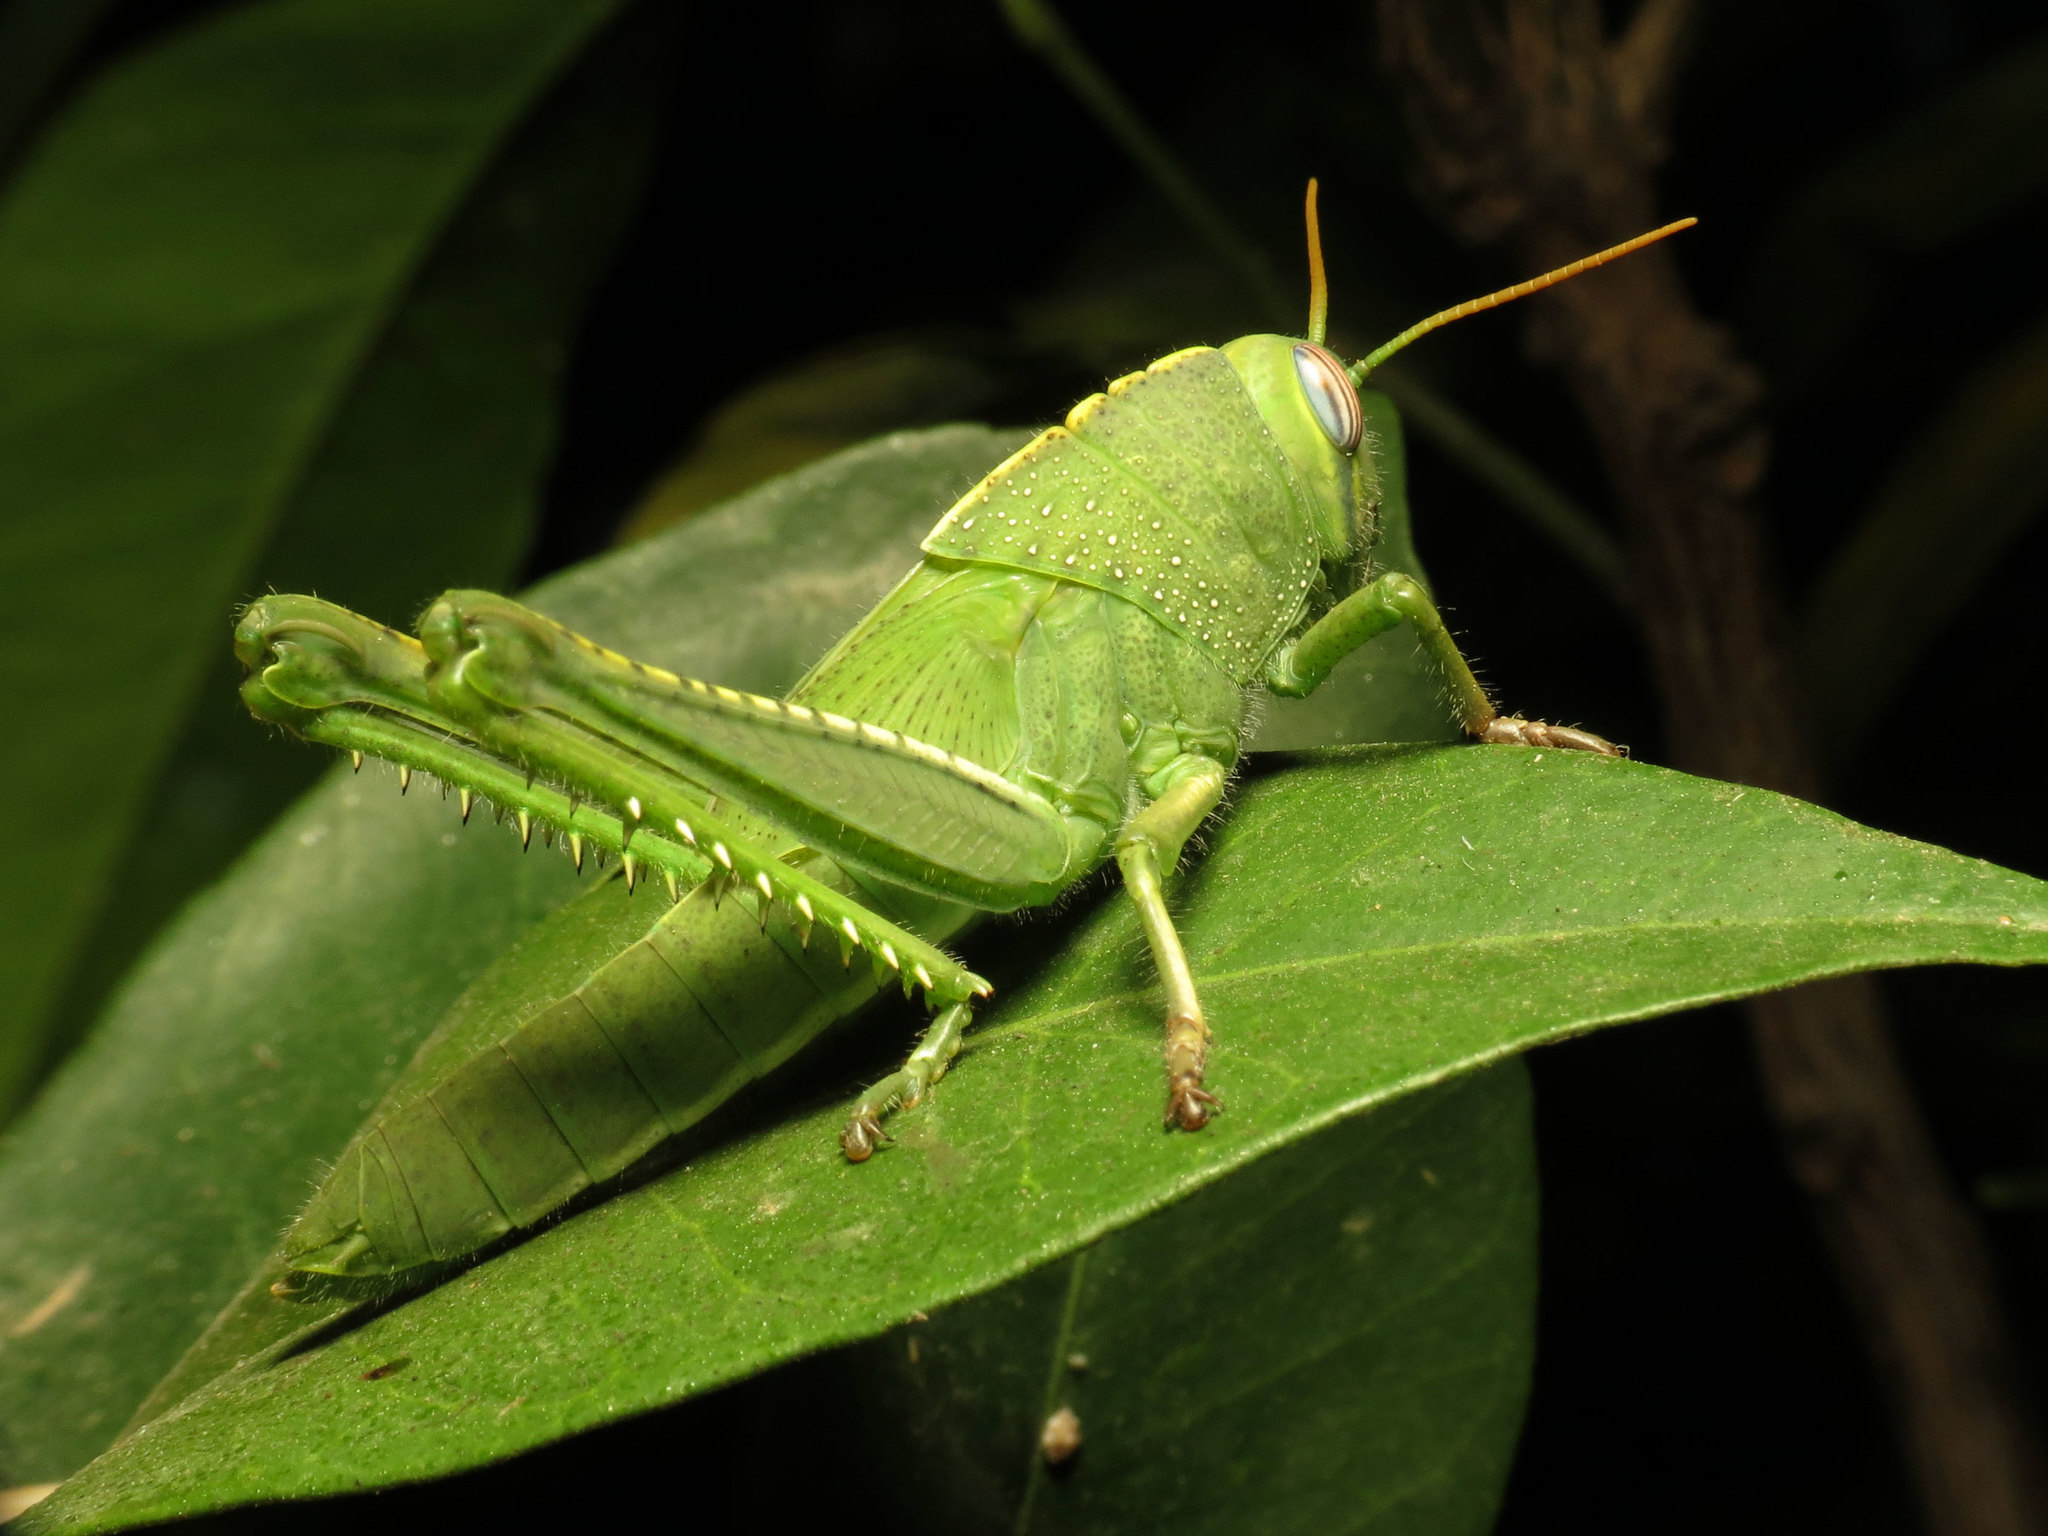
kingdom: Animalia
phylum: Arthropoda
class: Insecta
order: Orthoptera
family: Acrididae
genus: Anacridium
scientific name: Anacridium aegyptium
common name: Egyptian grasshopper
